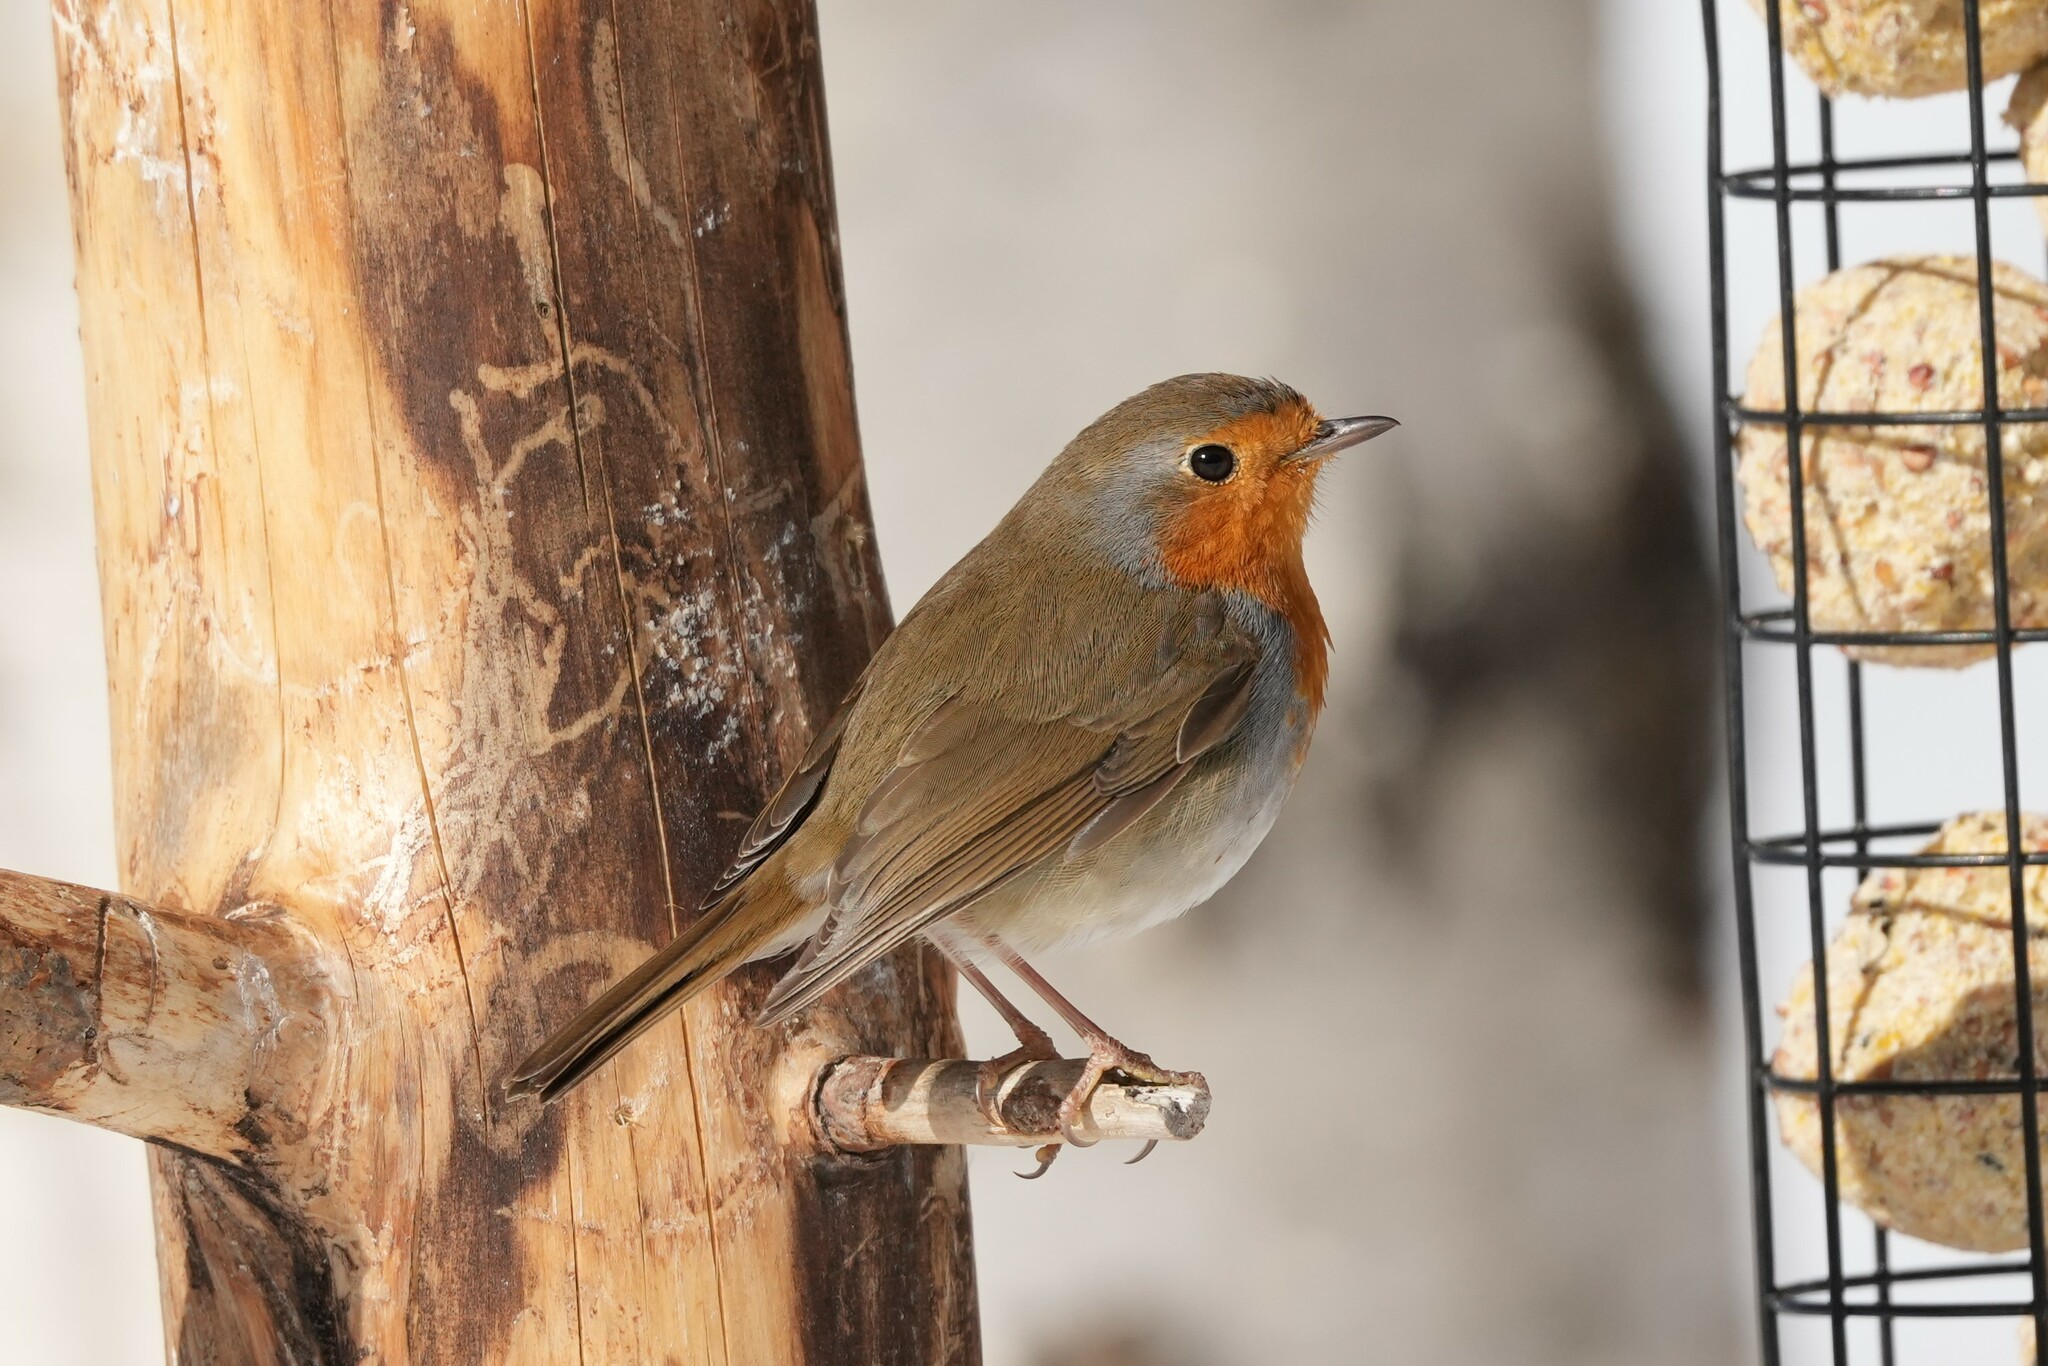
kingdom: Animalia
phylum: Chordata
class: Aves
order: Passeriformes
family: Muscicapidae
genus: Erithacus
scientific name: Erithacus rubecula
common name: European robin
